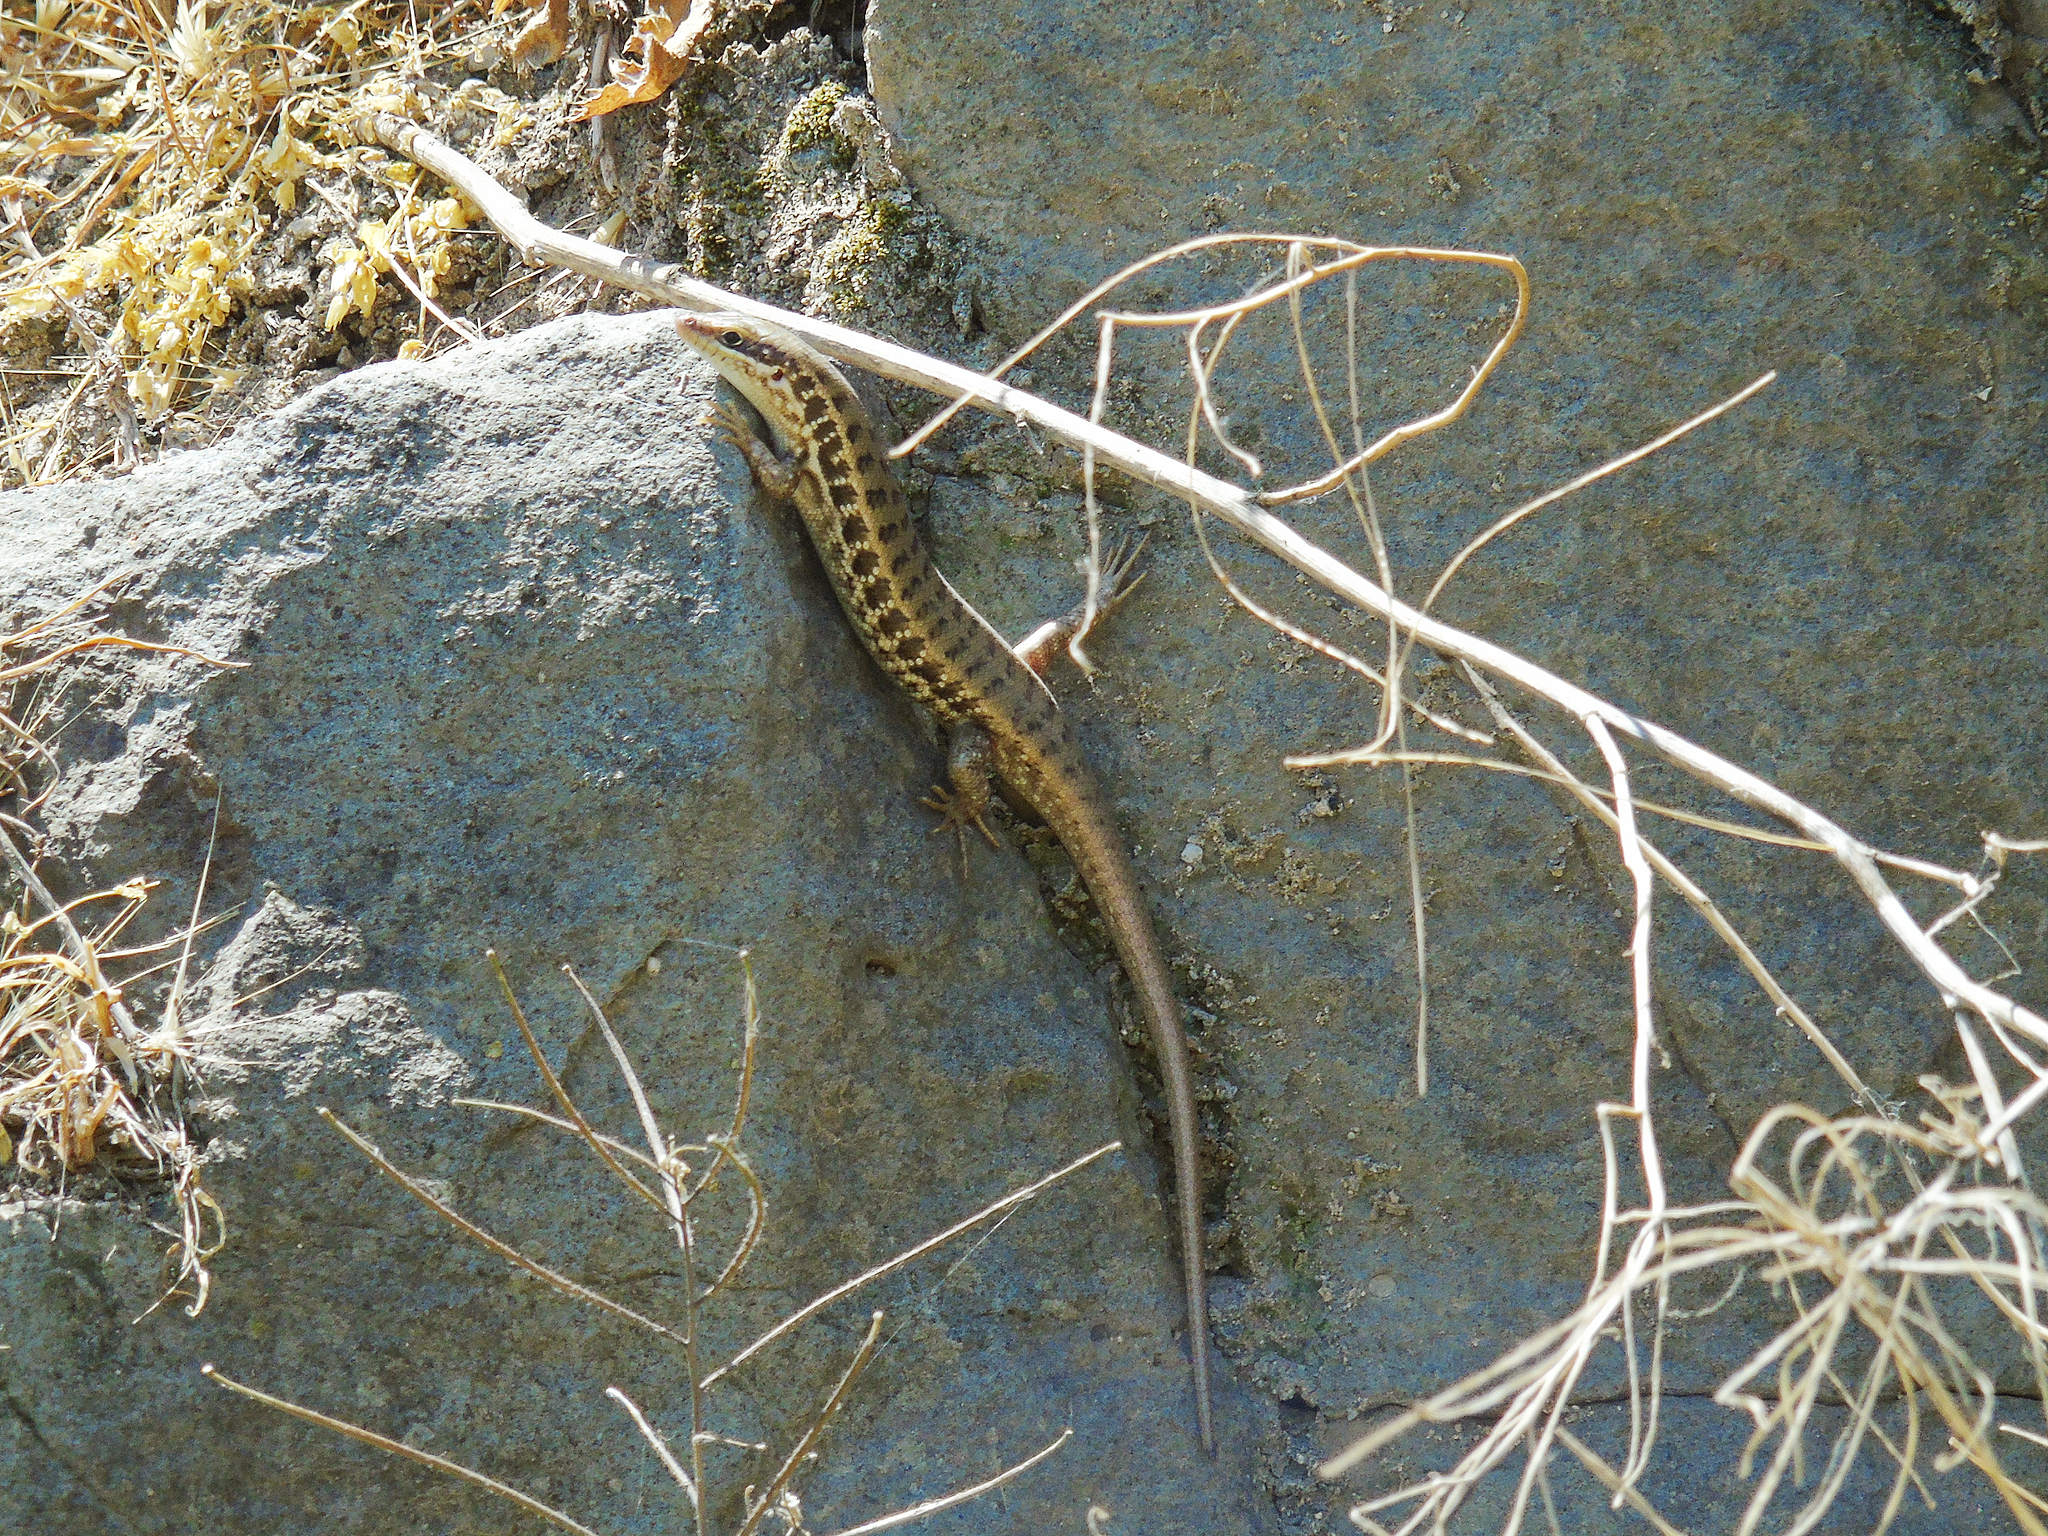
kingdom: Animalia
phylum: Chordata
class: Squamata
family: Scincidae
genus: Heremites
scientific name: Heremites auratus
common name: Golden grass mabuya
